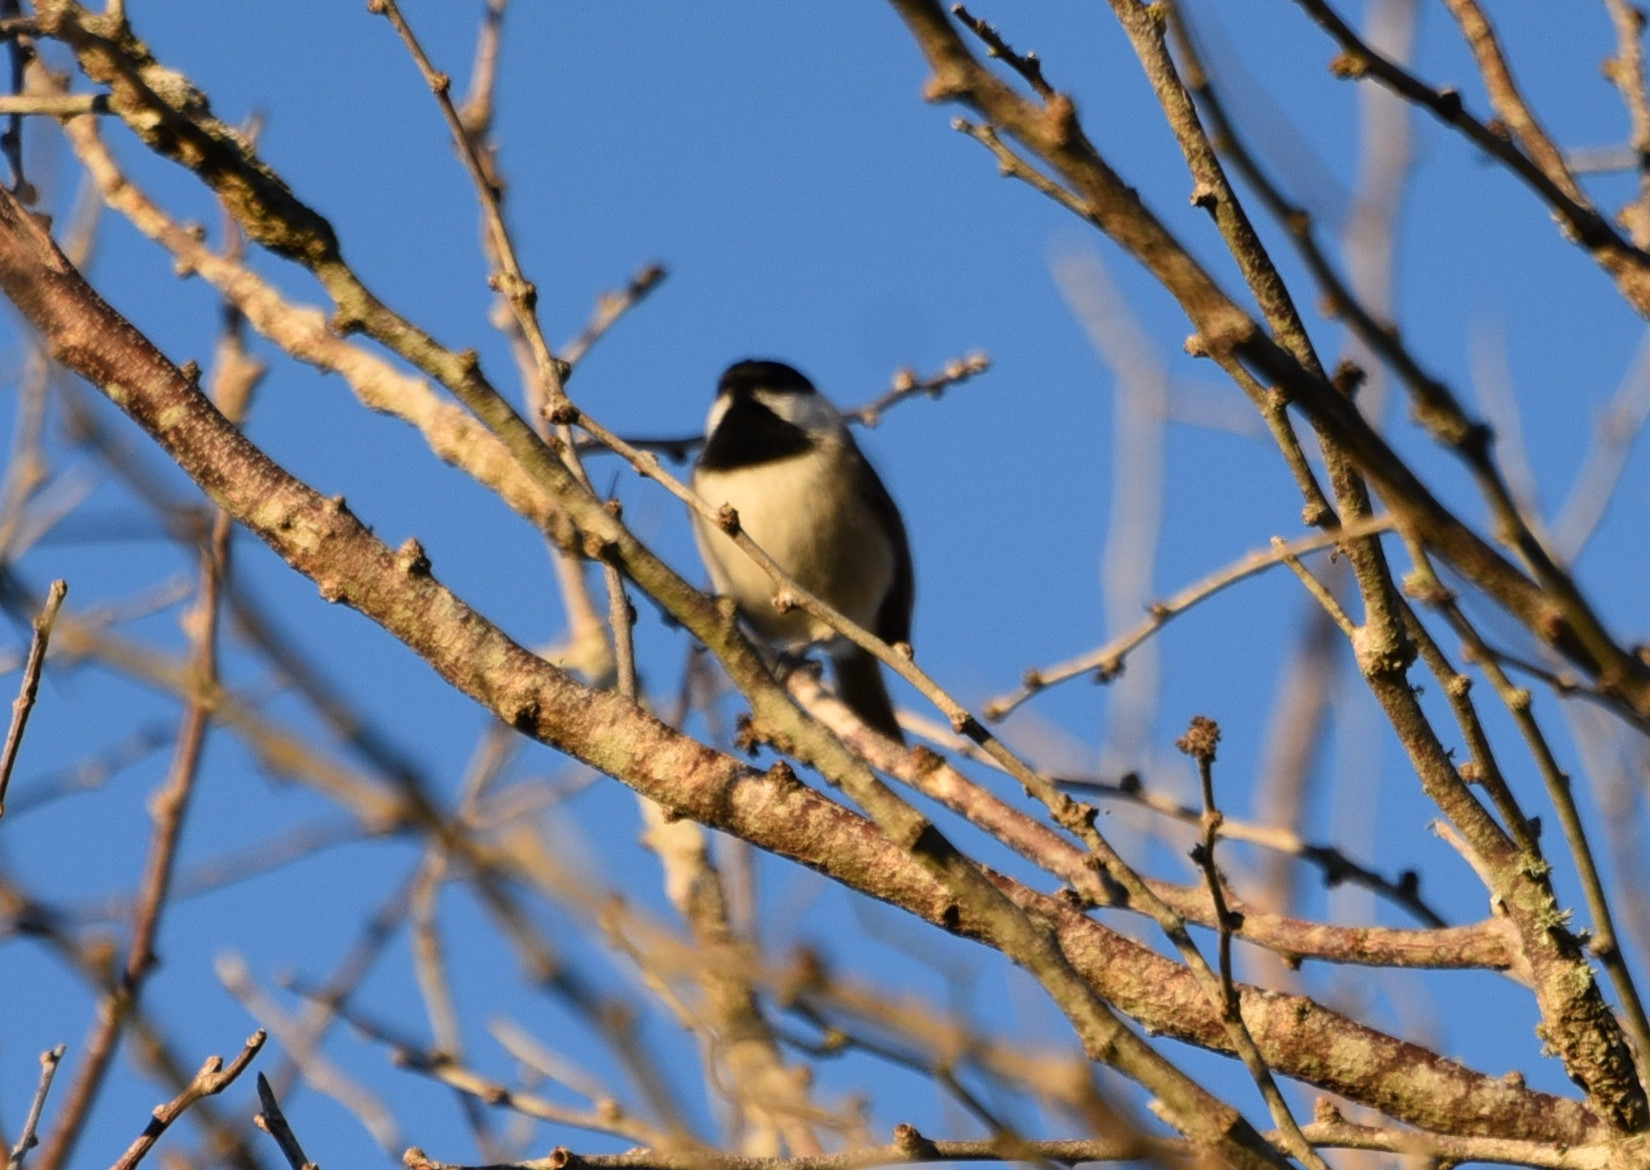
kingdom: Animalia
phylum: Chordata
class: Aves
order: Passeriformes
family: Paridae
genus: Poecile
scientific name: Poecile carolinensis
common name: Carolina chickadee
